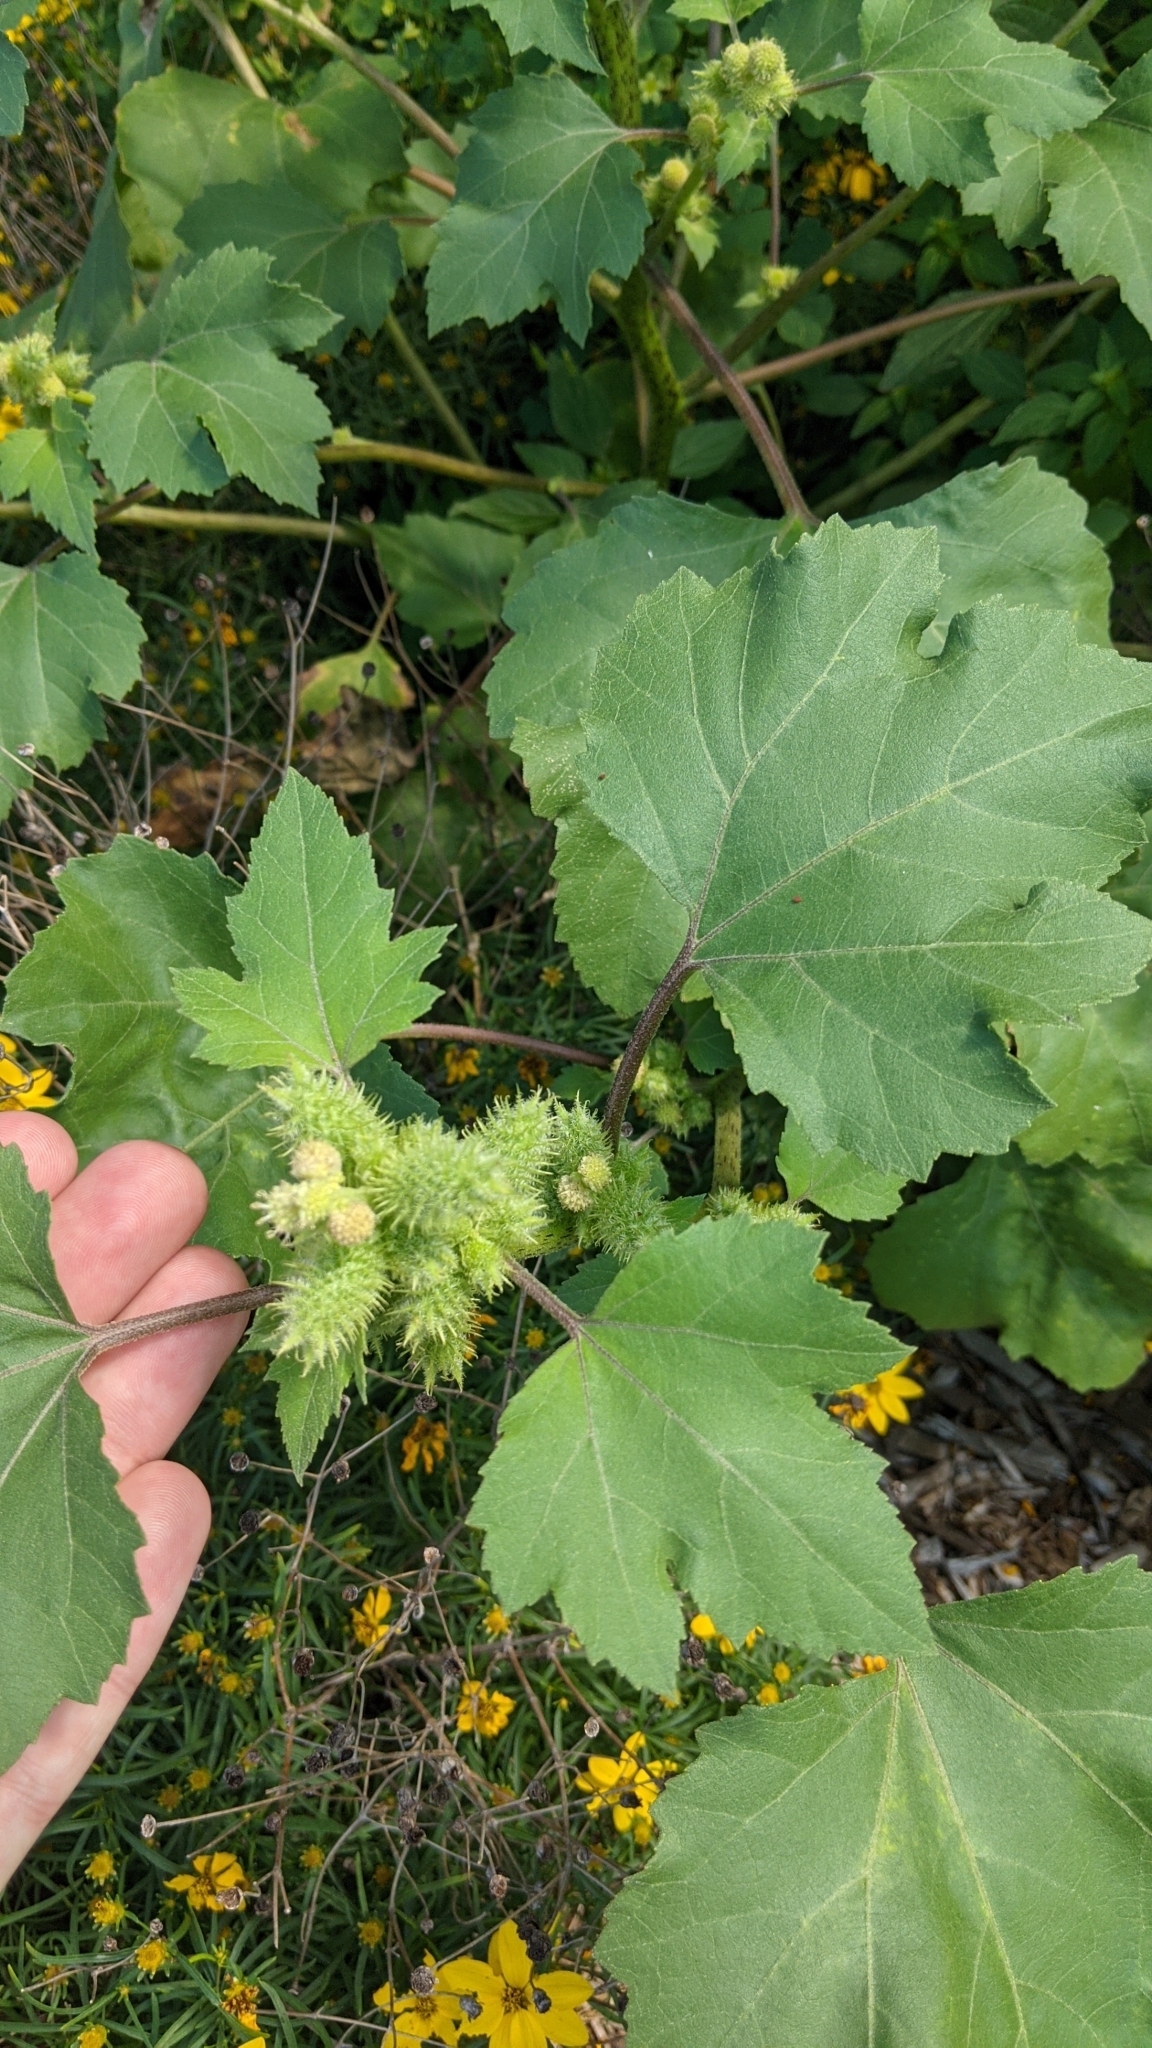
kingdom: Plantae
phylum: Tracheophyta
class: Magnoliopsida
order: Asterales
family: Asteraceae
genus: Xanthium
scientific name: Xanthium strumarium
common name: Rough cocklebur
